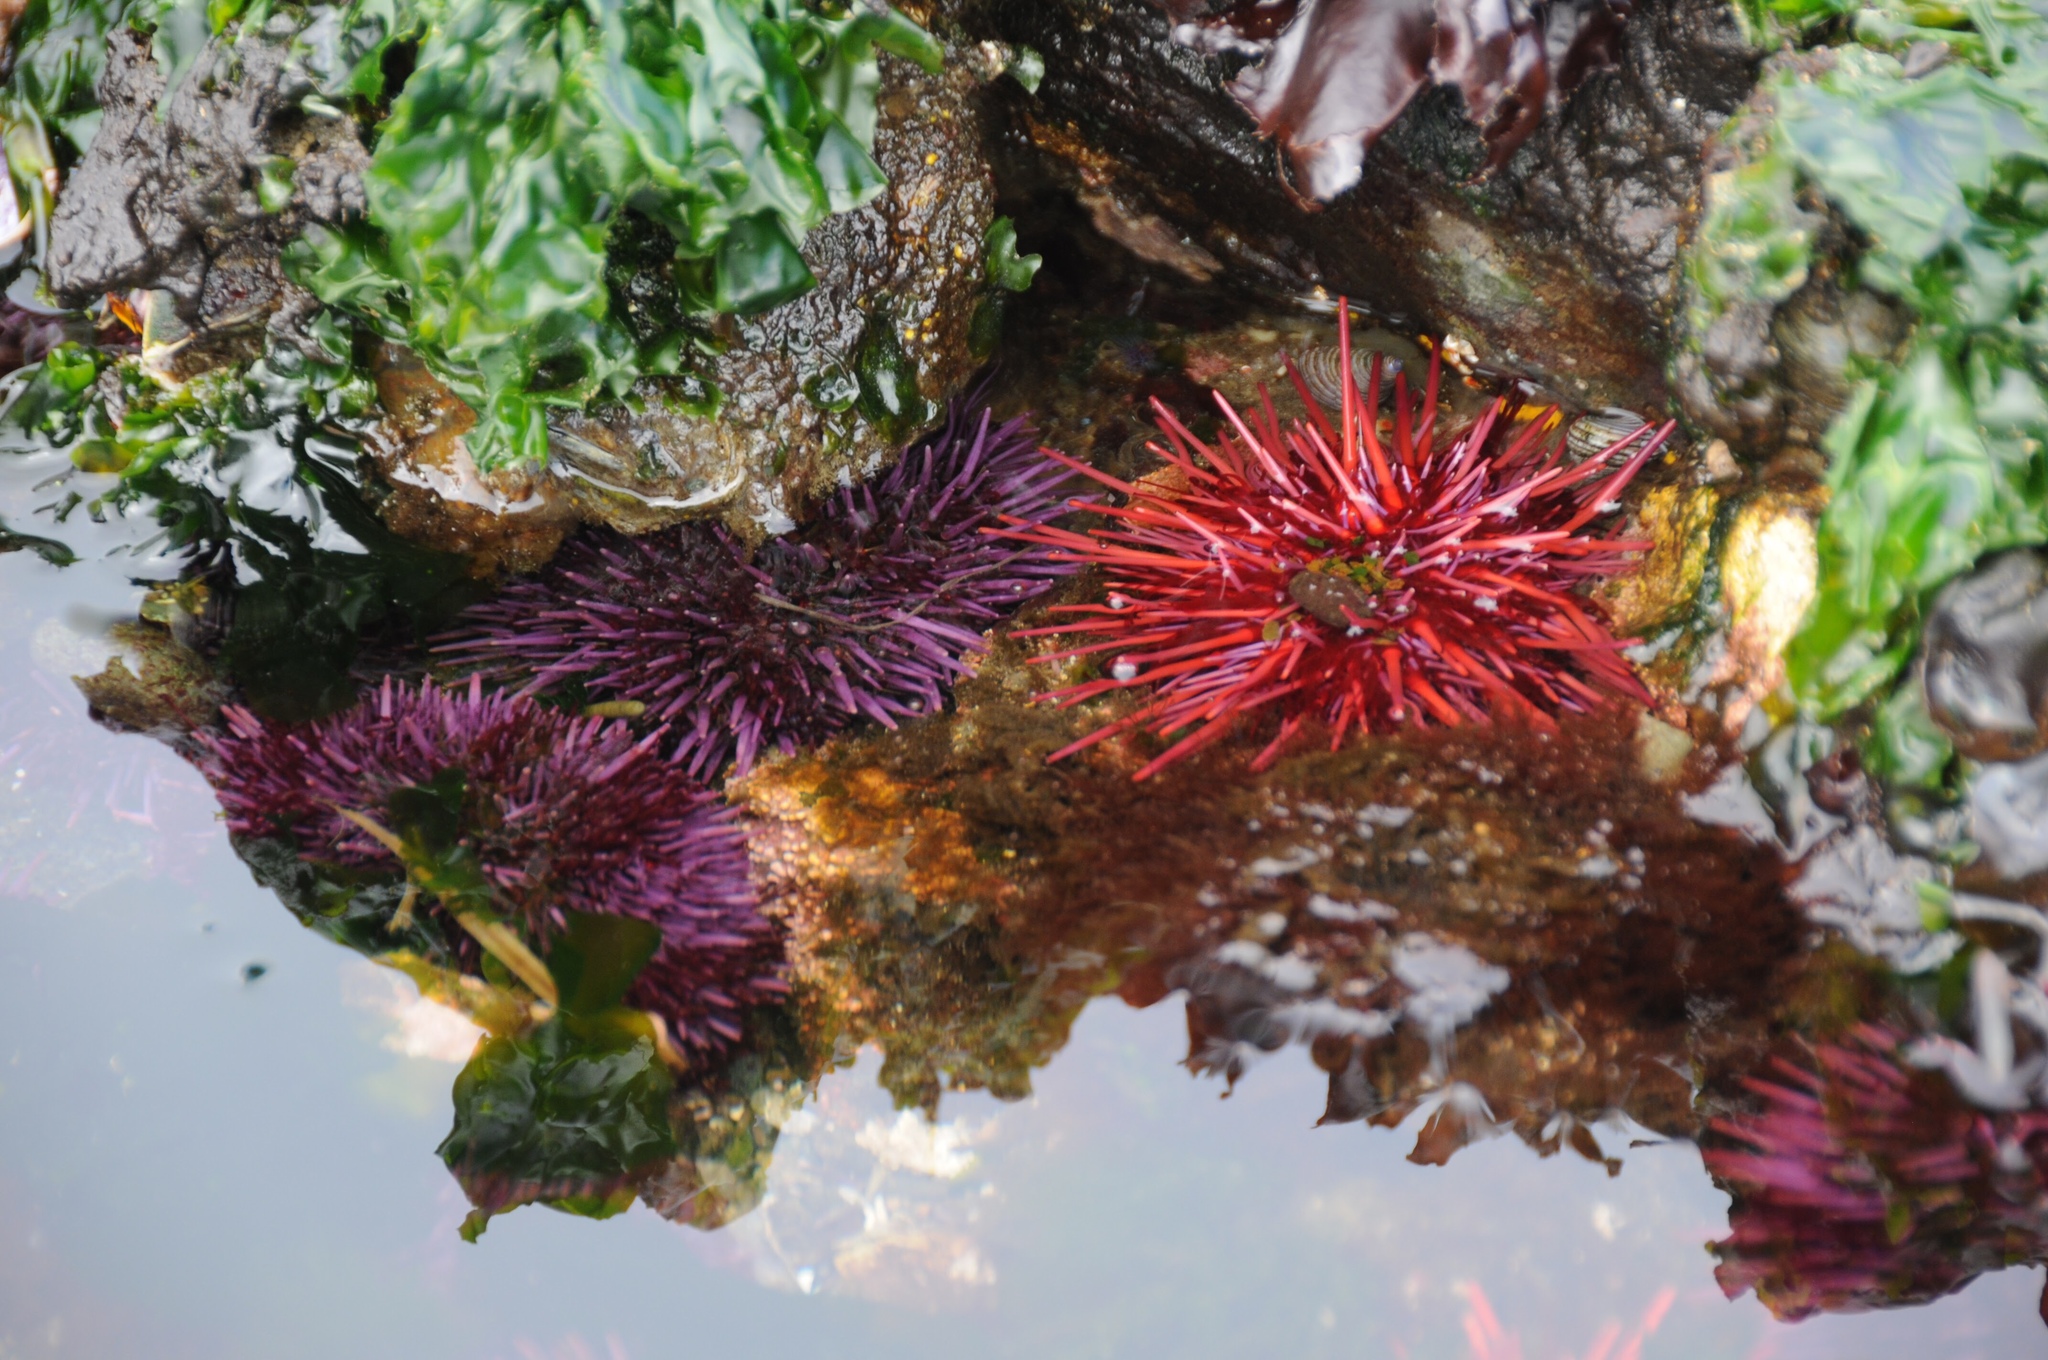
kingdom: Animalia
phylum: Echinodermata
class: Echinoidea
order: Camarodonta
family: Strongylocentrotidae
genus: Mesocentrotus
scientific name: Mesocentrotus franciscanus
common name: Red sea urchin
